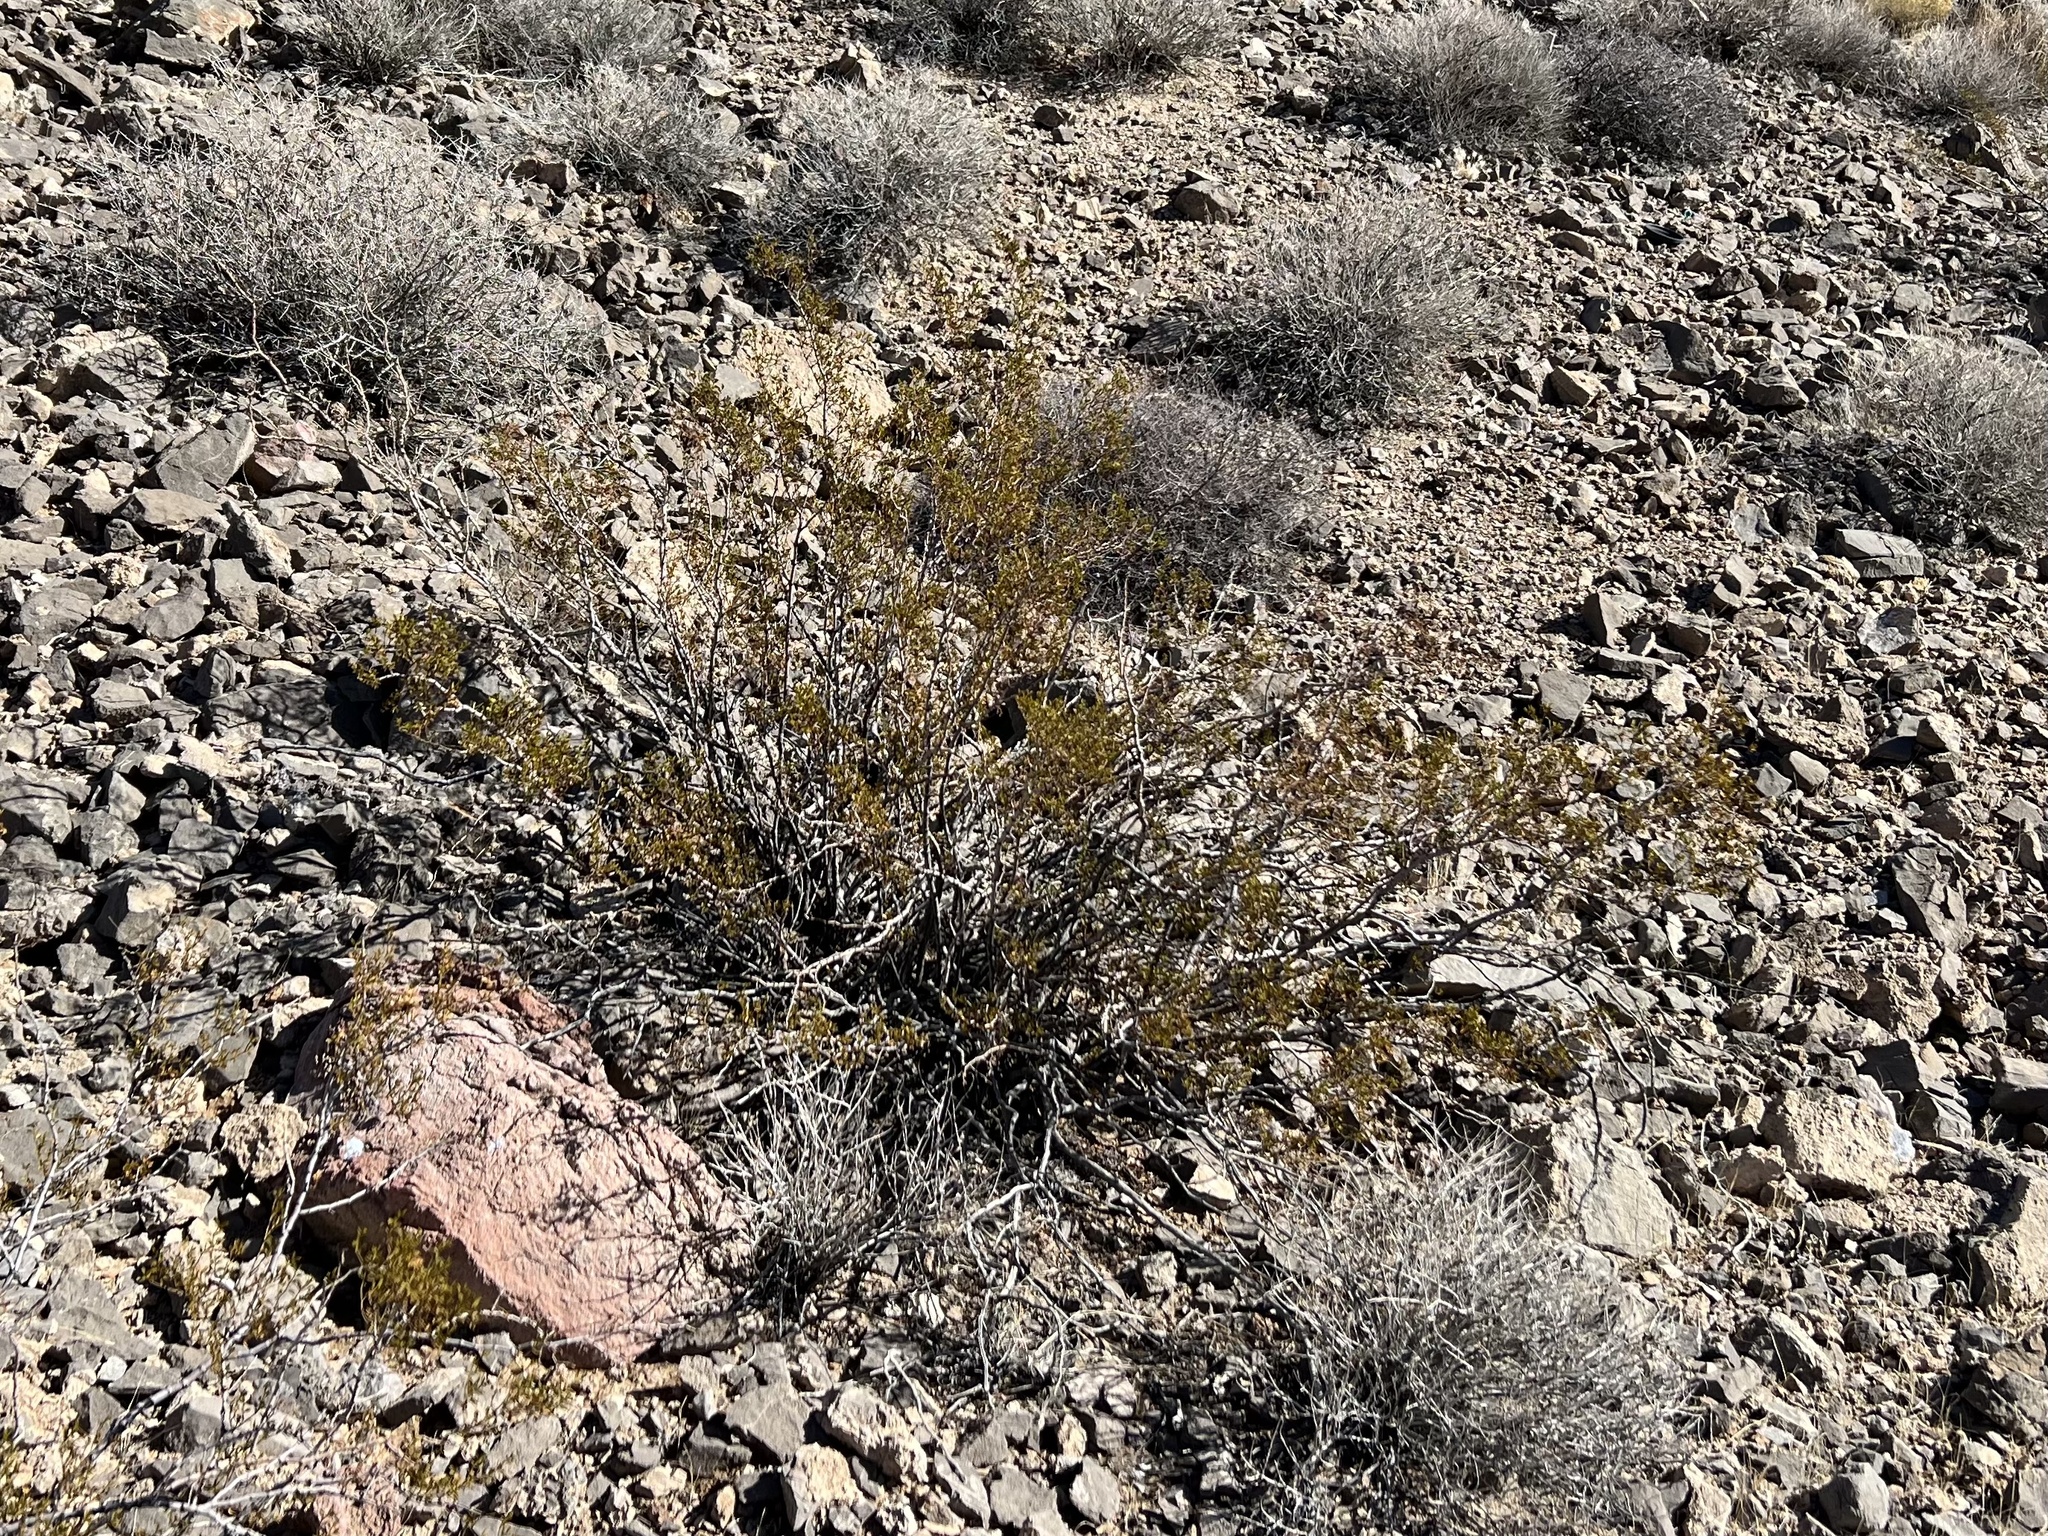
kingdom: Plantae
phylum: Tracheophyta
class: Magnoliopsida
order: Zygophyllales
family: Zygophyllaceae
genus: Larrea
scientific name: Larrea tridentata
